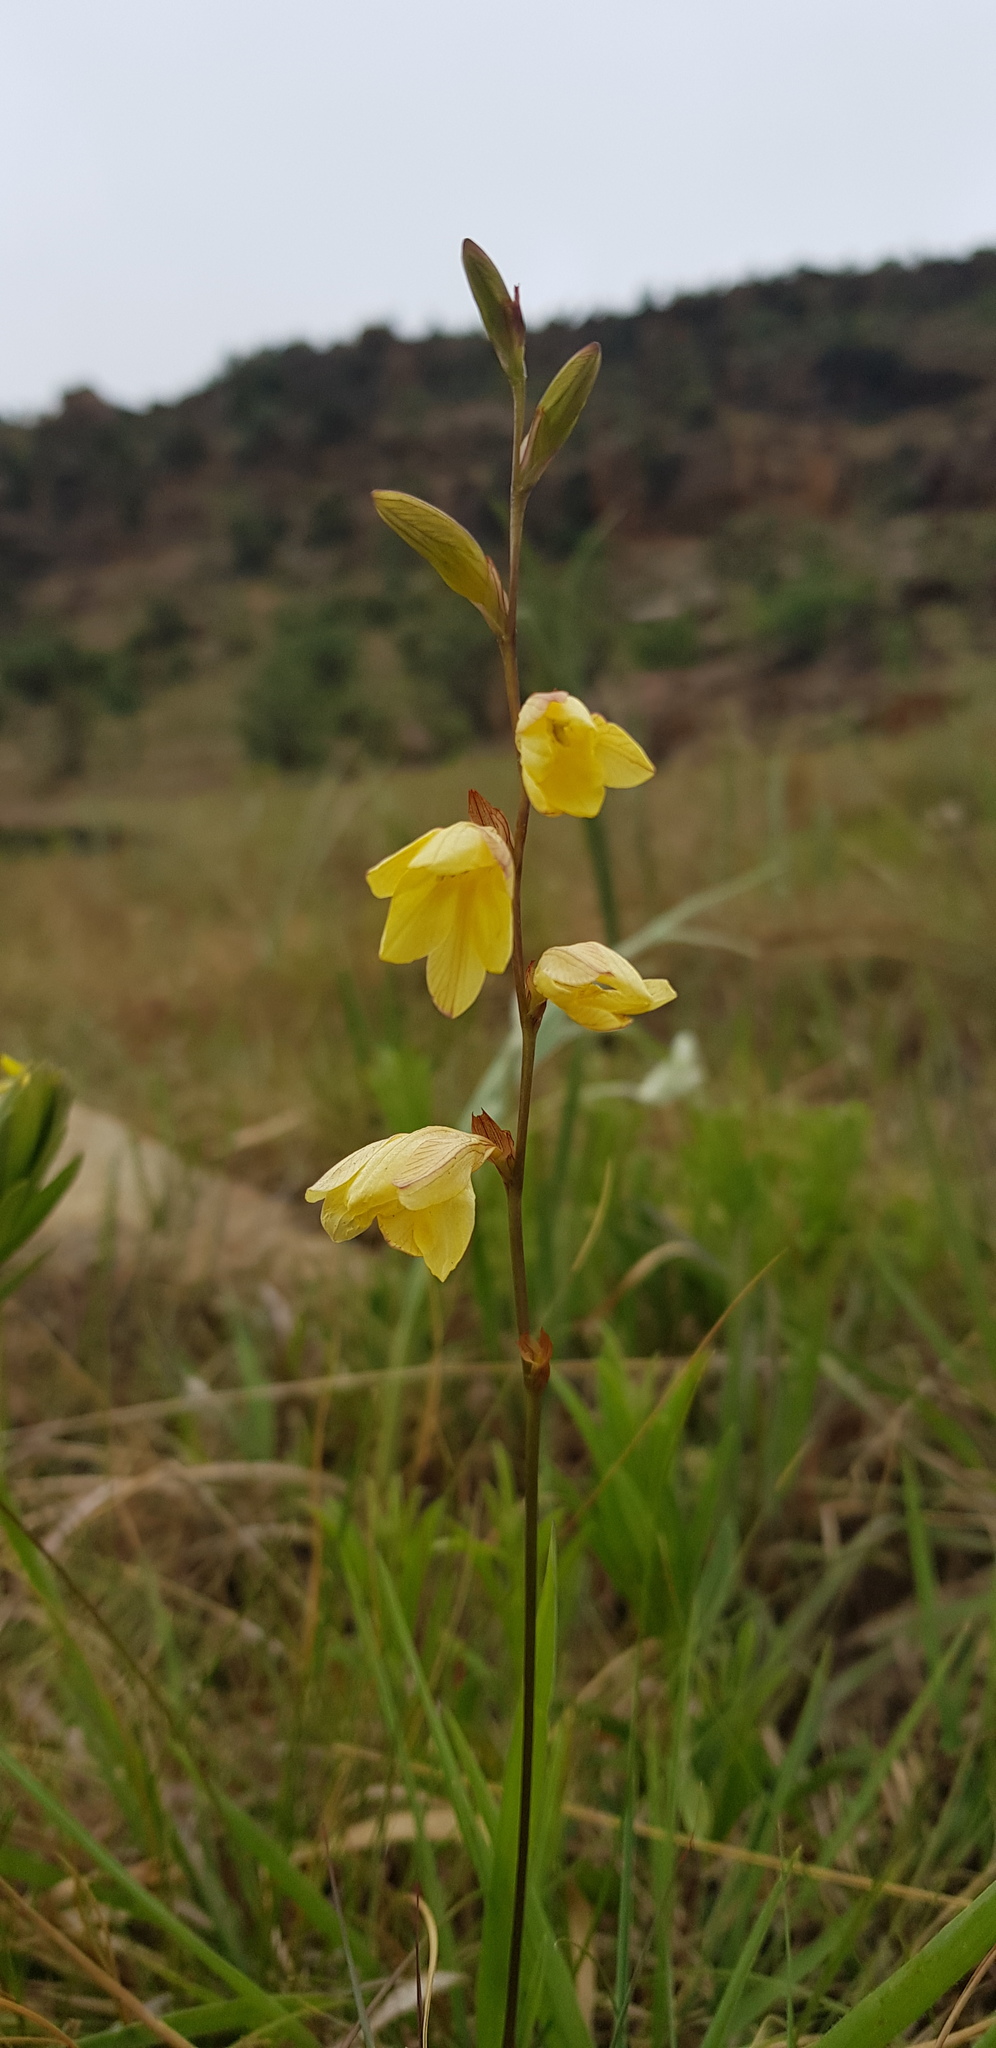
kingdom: Plantae
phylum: Tracheophyta
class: Liliopsida
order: Asparagales
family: Iridaceae
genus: Tritonia
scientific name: Tritonia gladiolaris
